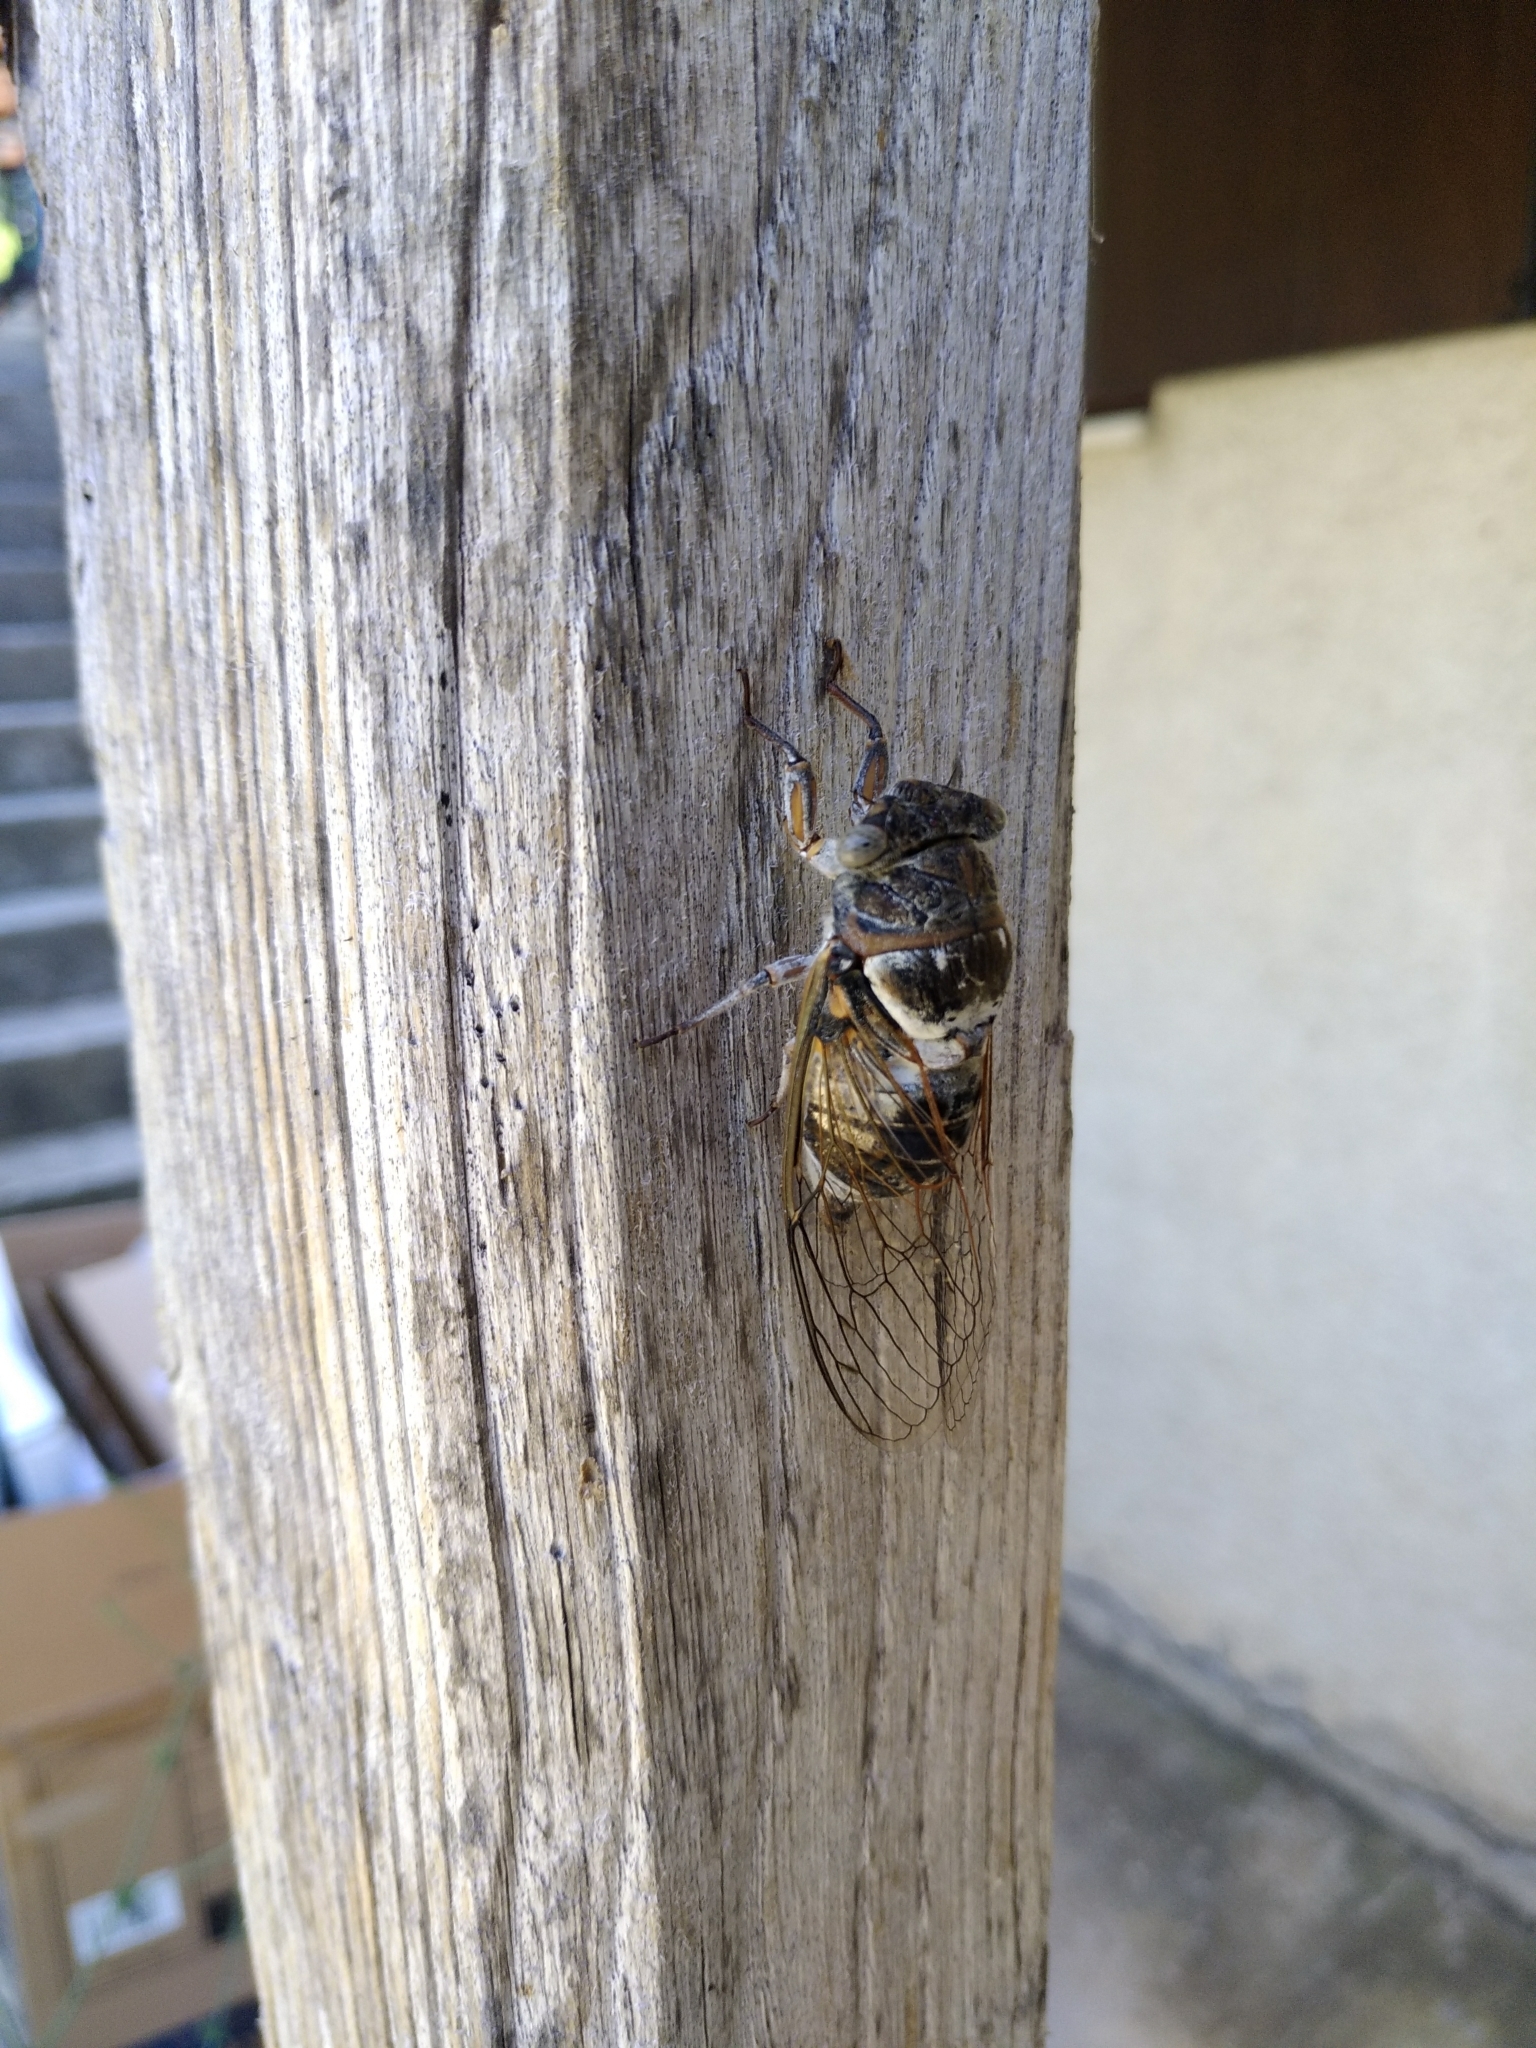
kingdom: Animalia
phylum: Arthropoda
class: Insecta
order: Hemiptera
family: Cicadidae
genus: Lyristes
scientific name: Lyristes plebejus
